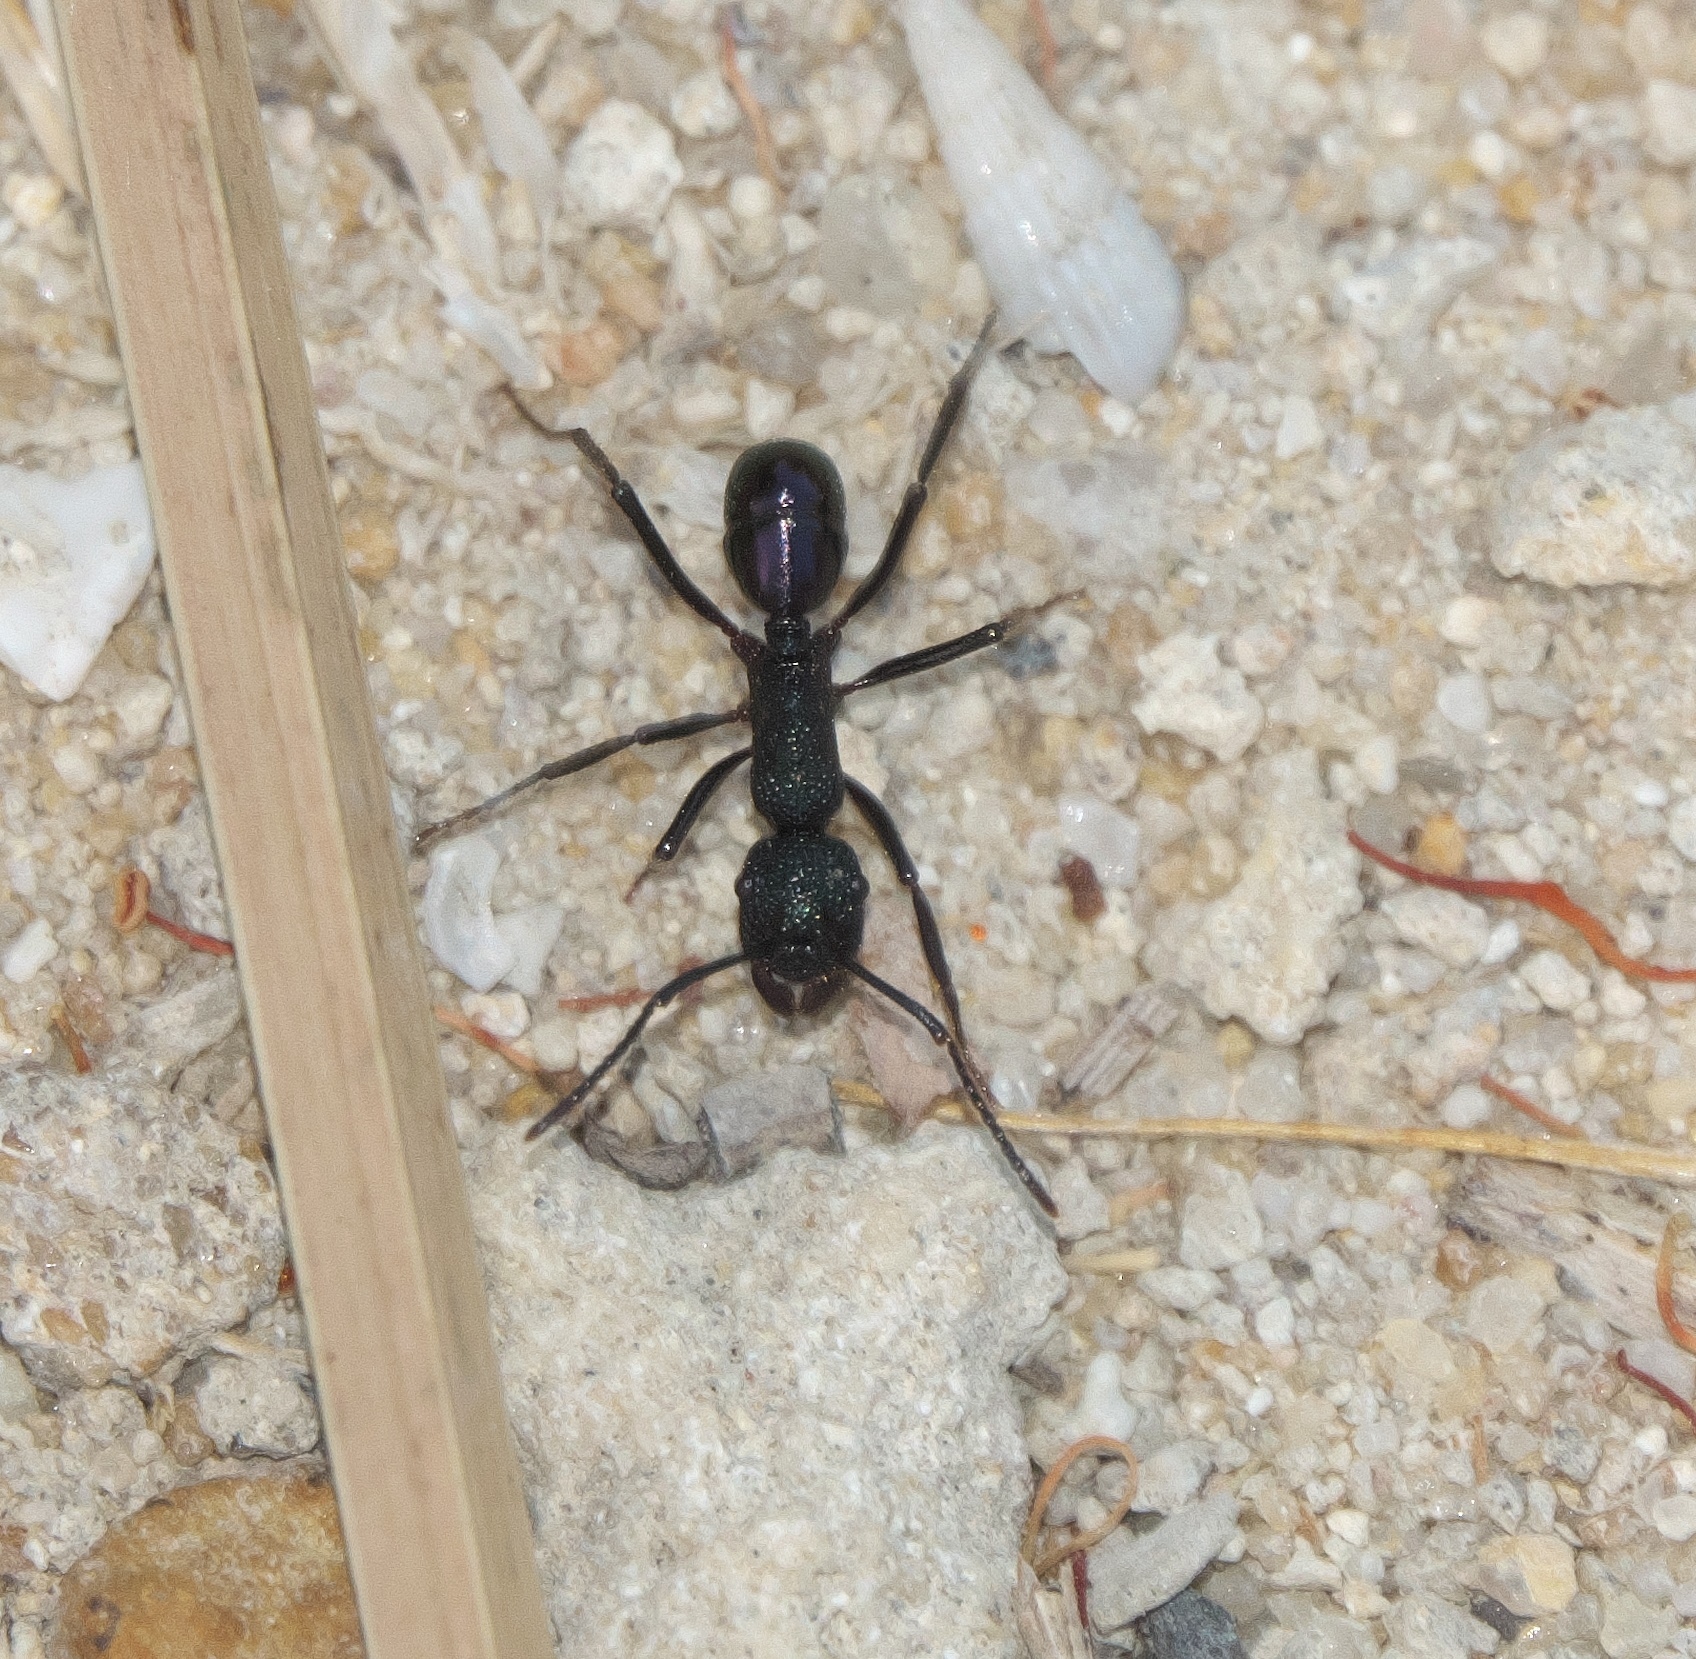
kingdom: Animalia
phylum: Arthropoda
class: Insecta
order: Hymenoptera
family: Formicidae
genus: Rhytidoponera
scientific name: Rhytidoponera violacea
